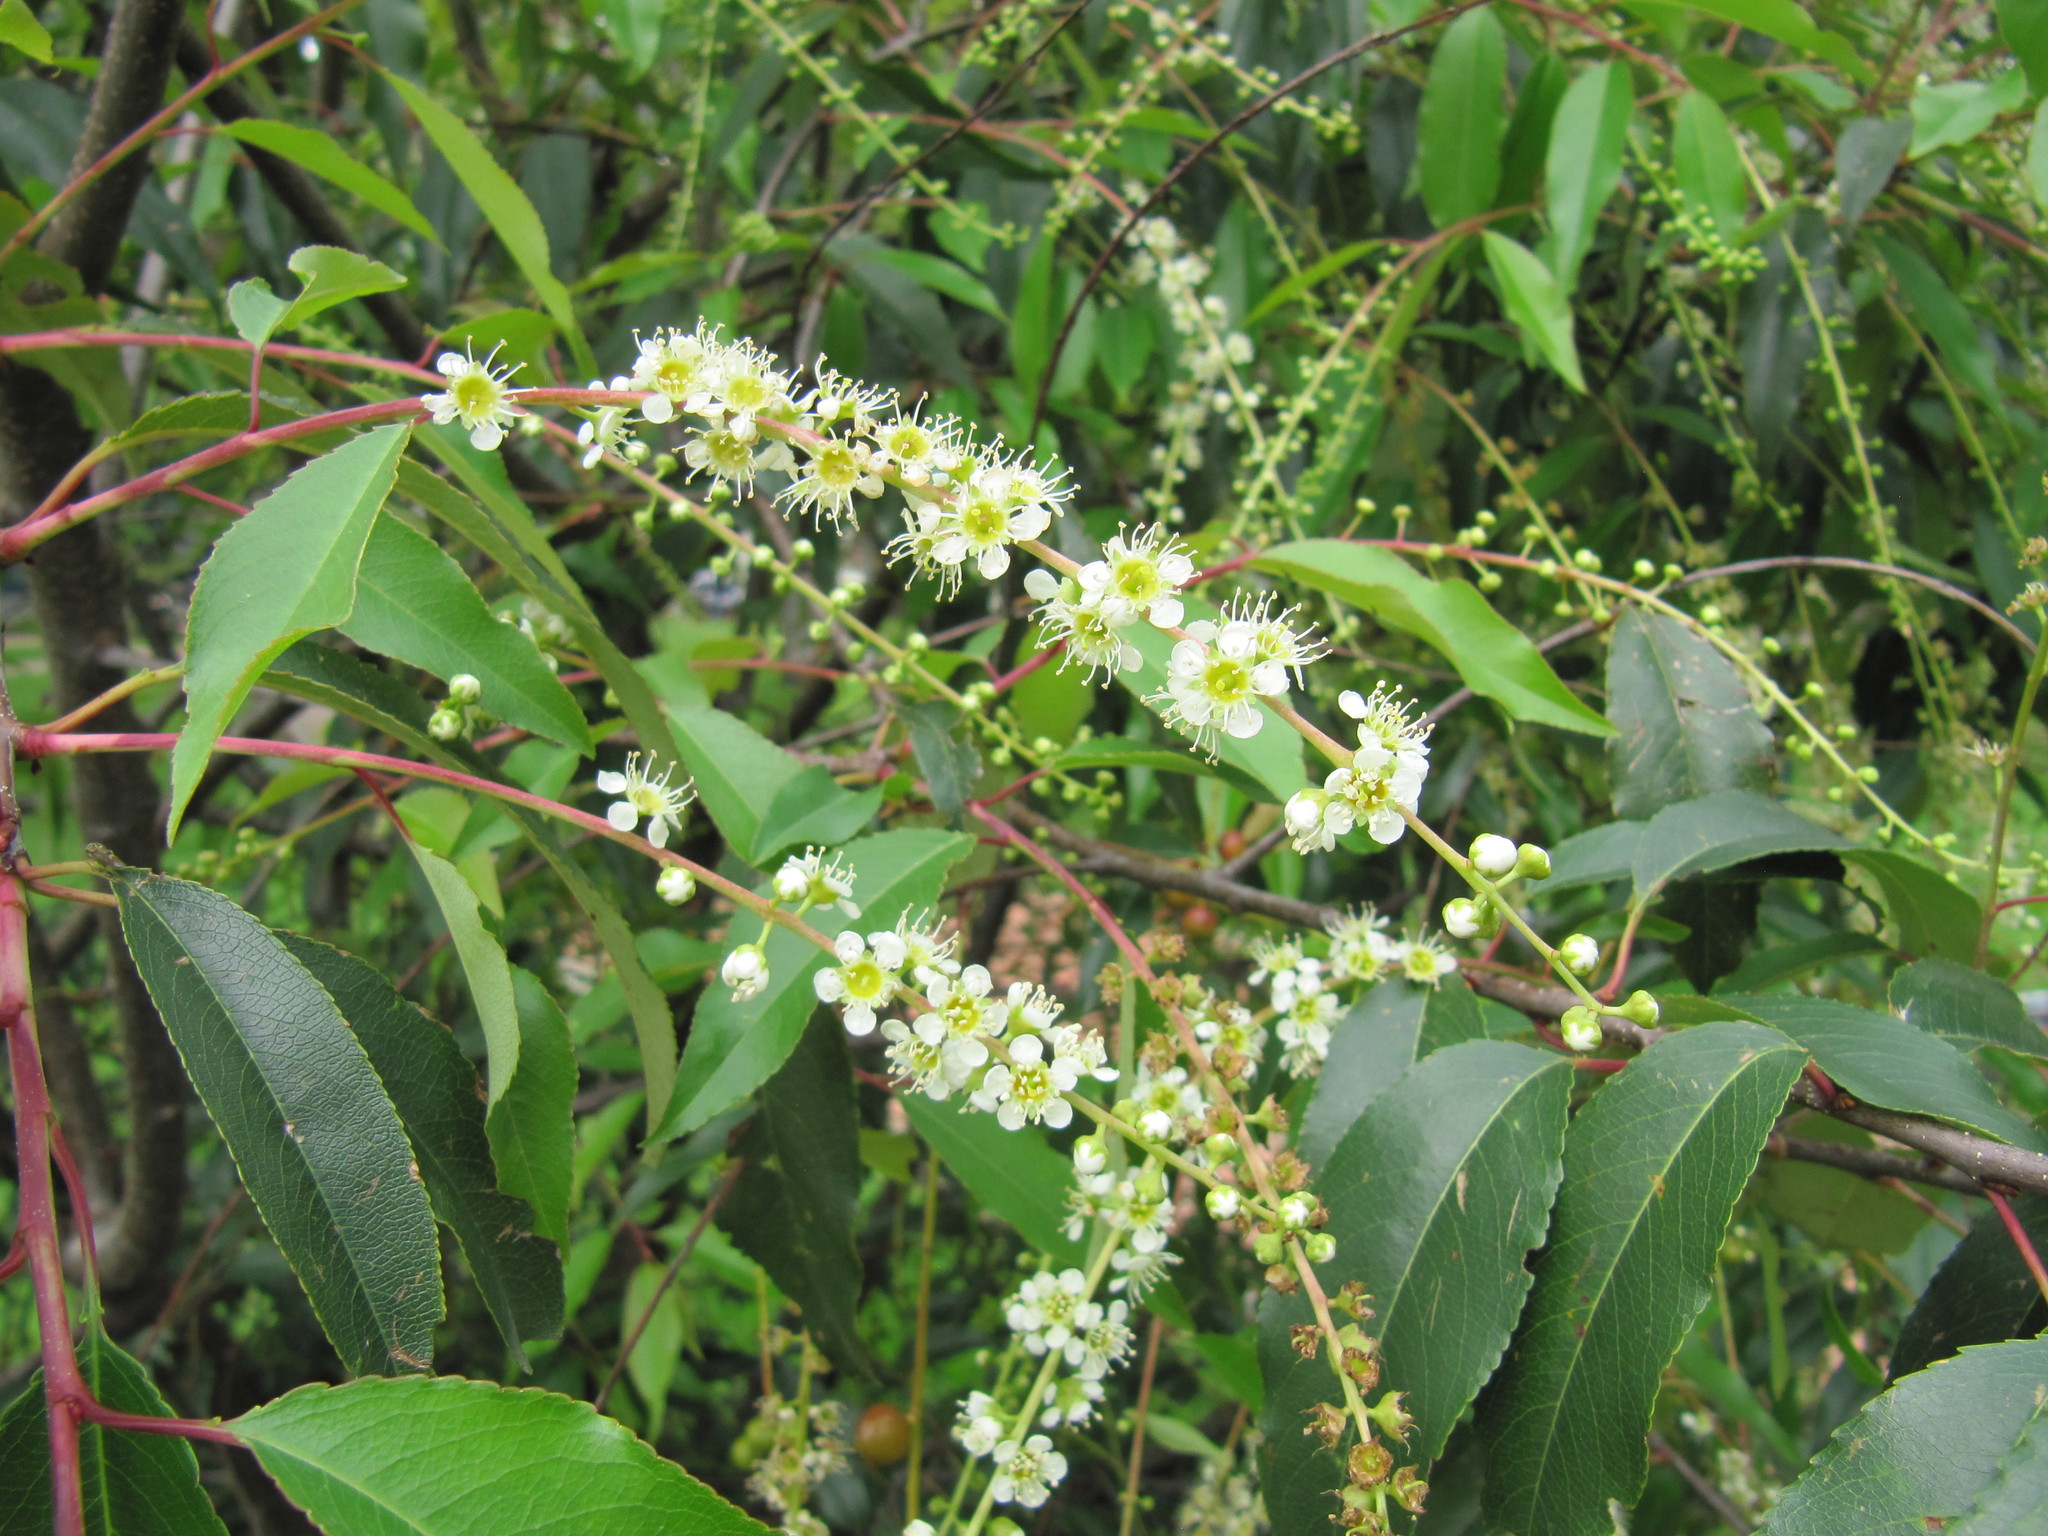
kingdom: Plantae
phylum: Tracheophyta
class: Magnoliopsida
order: Rosales
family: Rosaceae
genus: Prunus
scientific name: Prunus serotina
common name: Black cherry
